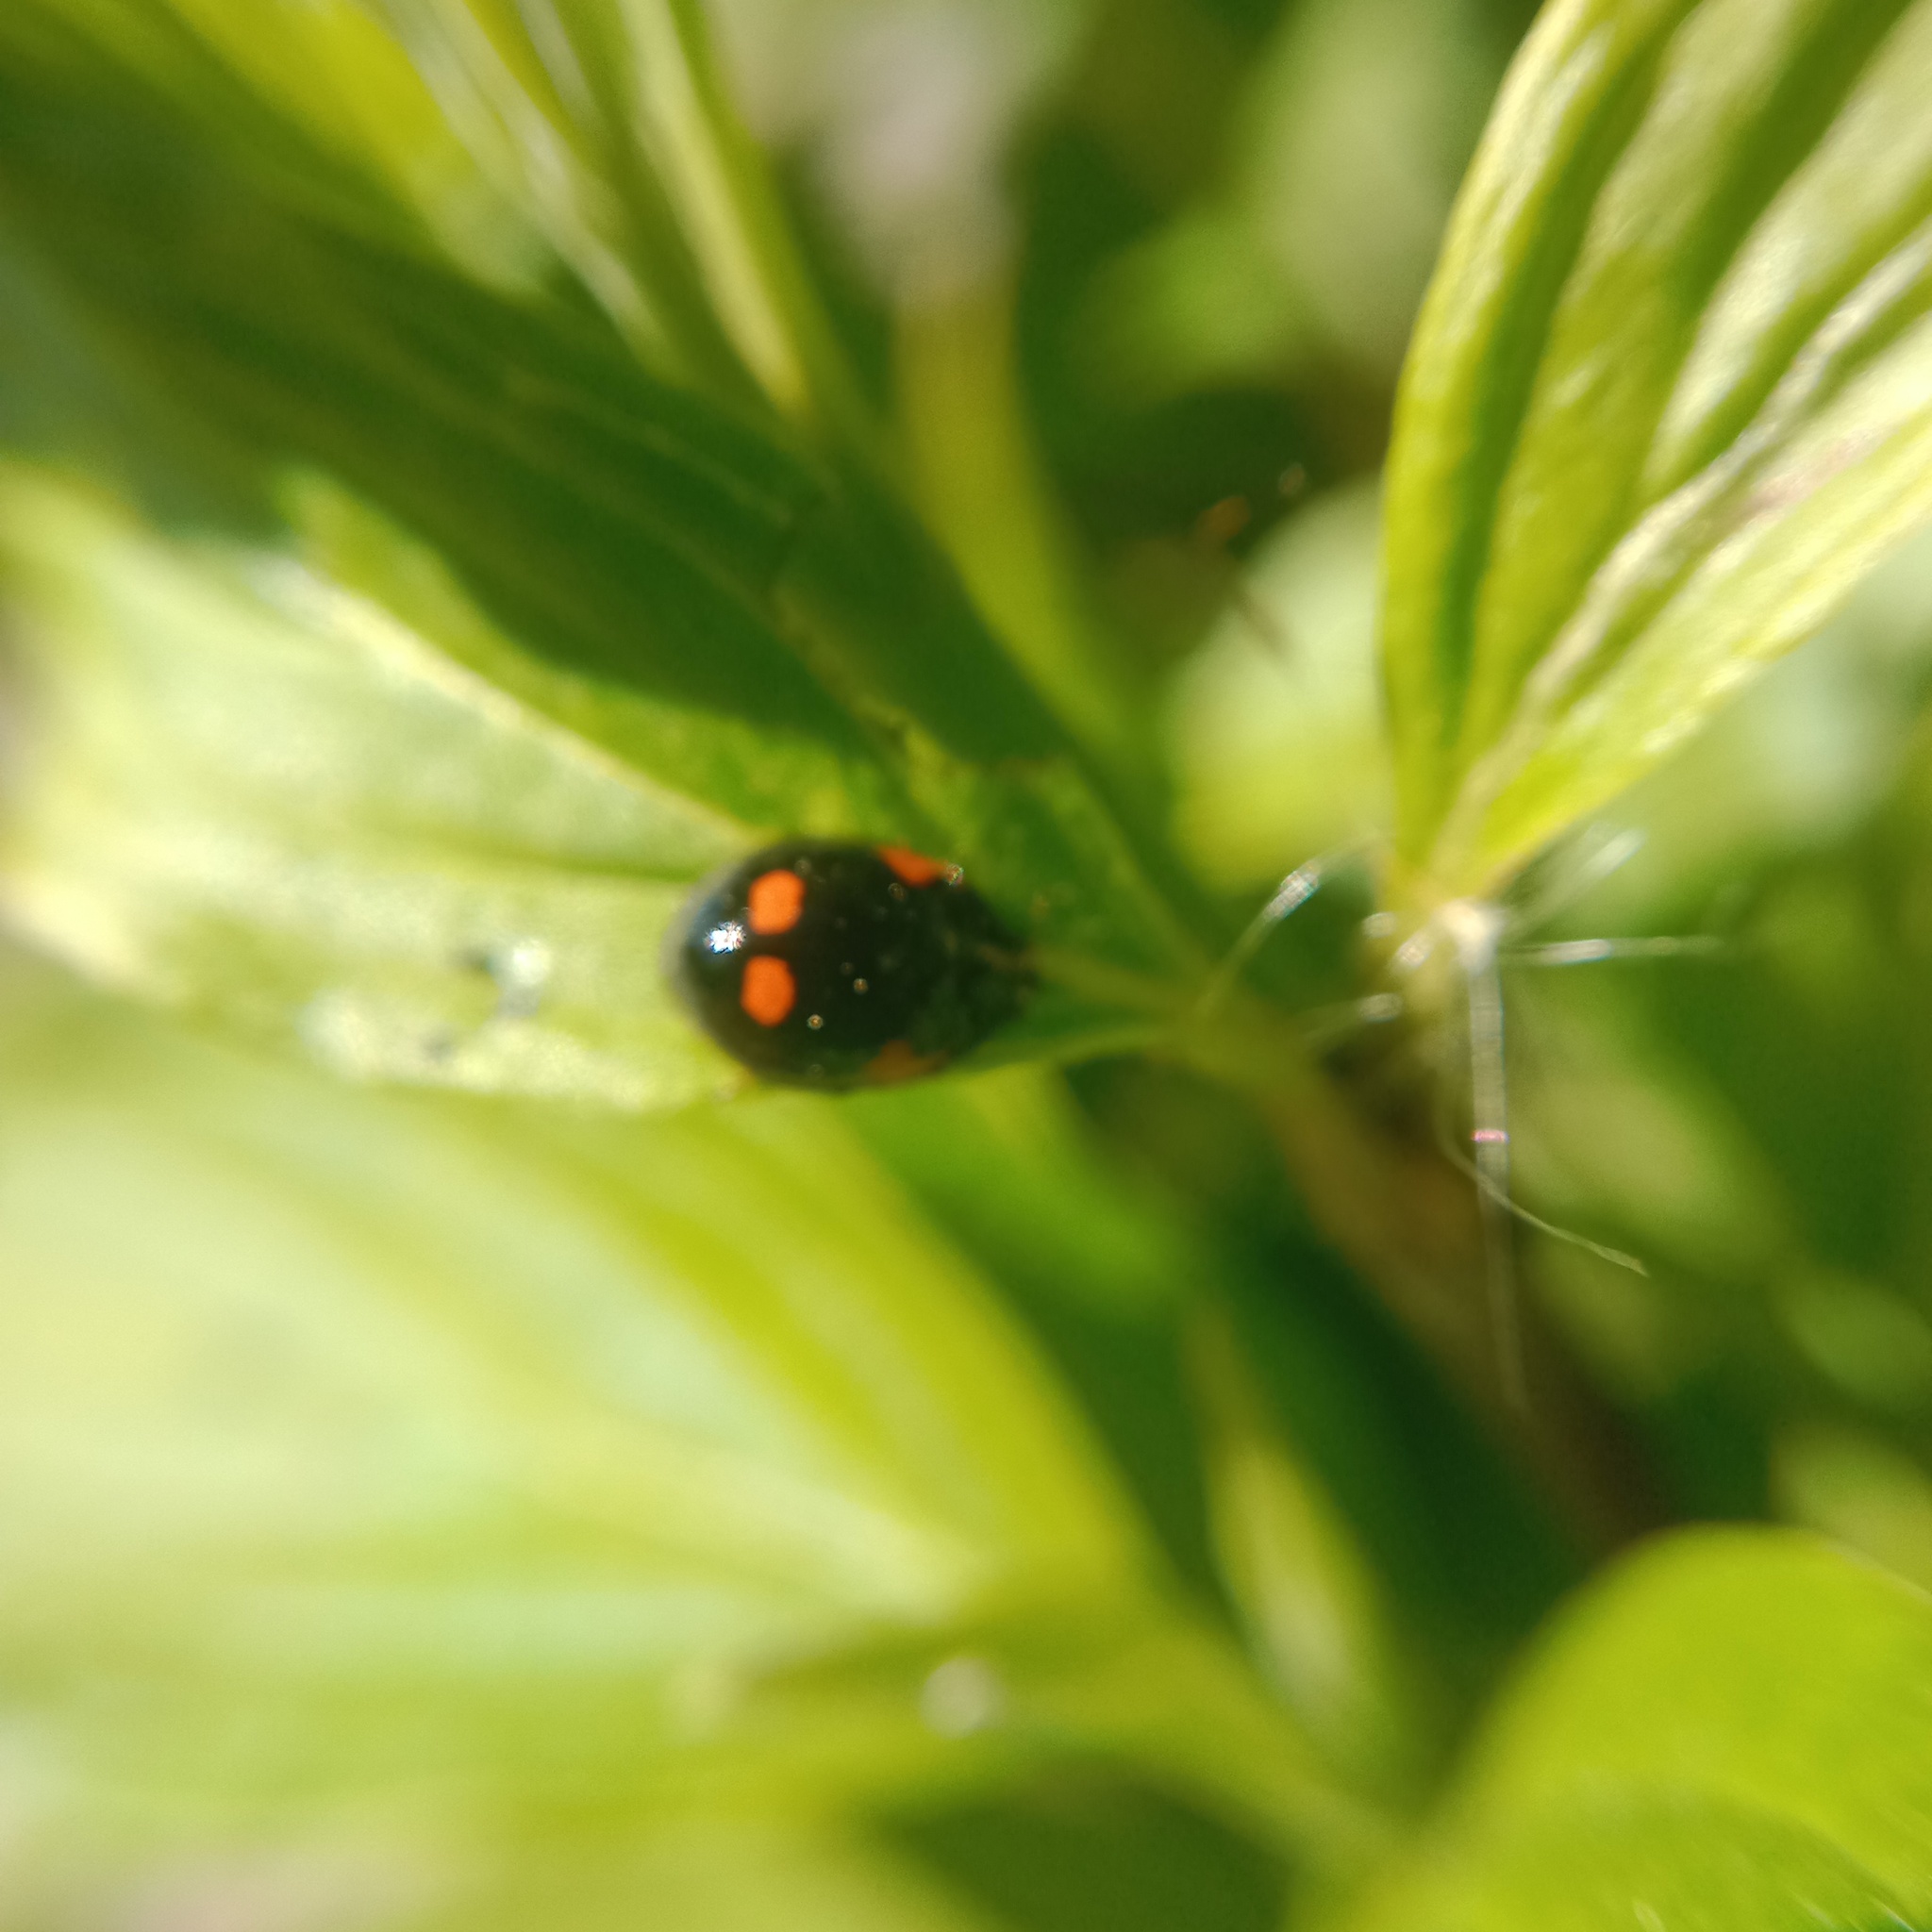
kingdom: Animalia
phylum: Arthropoda
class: Insecta
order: Coleoptera
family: Coccinellidae
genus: Adalia
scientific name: Adalia bipunctata
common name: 2-spot ladybird
